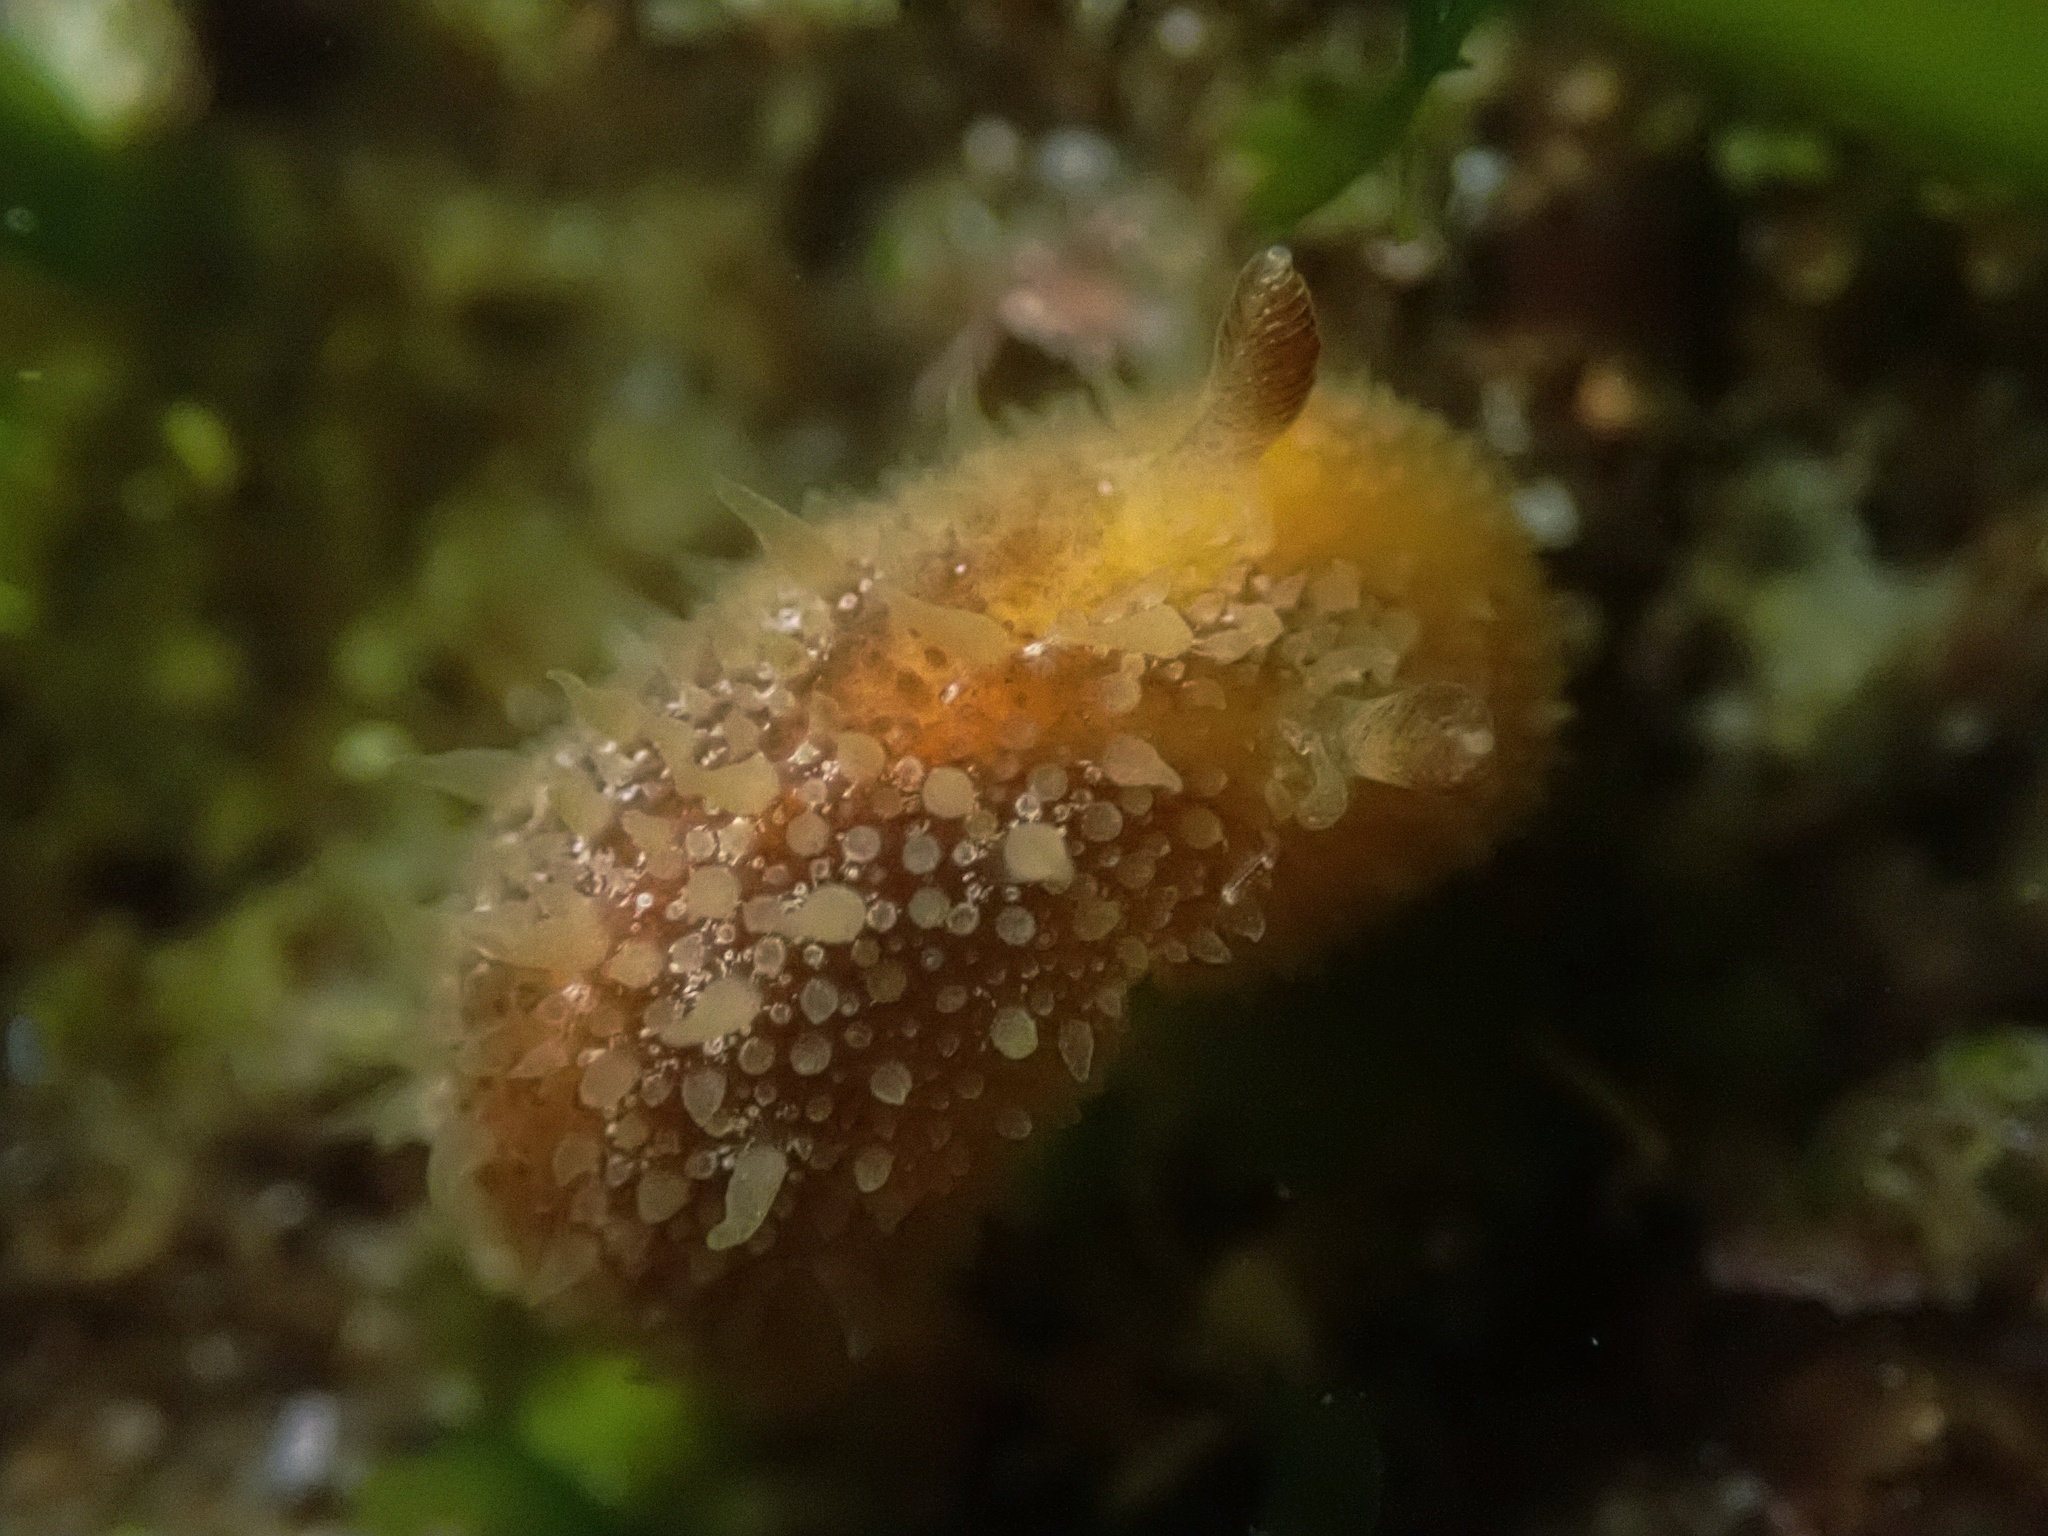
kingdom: Animalia
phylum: Mollusca
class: Gastropoda
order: Nudibranchia
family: Discodorididae
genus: Thordisa
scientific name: Thordisa bimaculata
